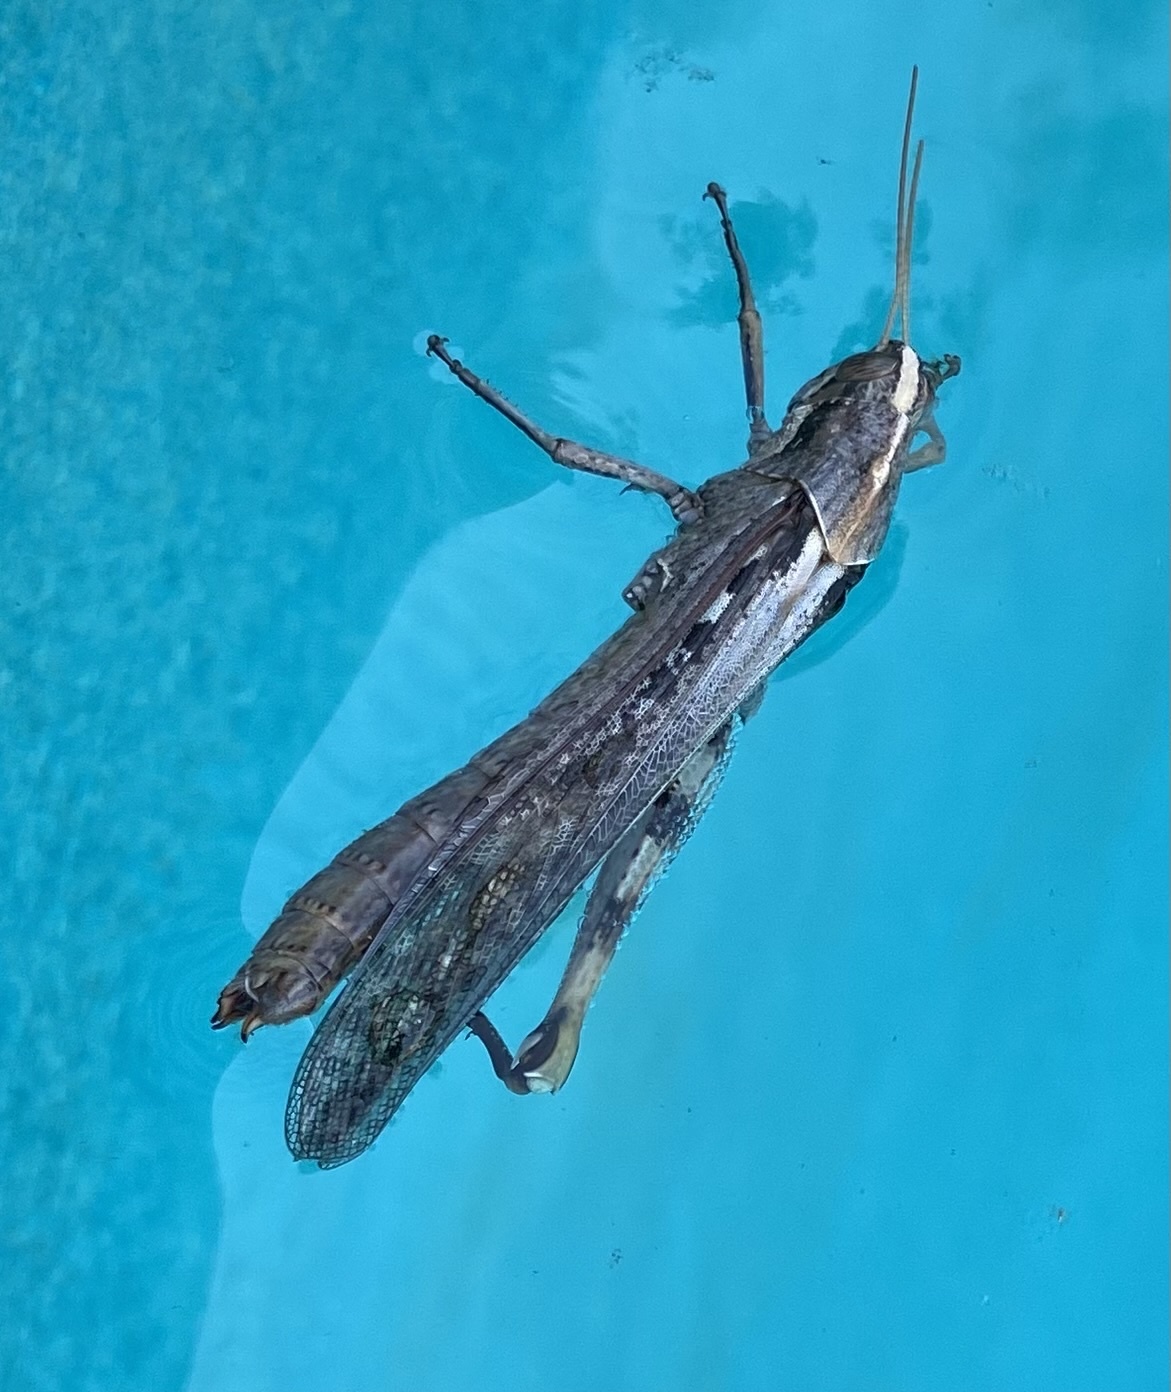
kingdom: Animalia
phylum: Arthropoda
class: Insecta
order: Orthoptera
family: Acrididae
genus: Schistocerca
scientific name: Schistocerca nitens
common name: Vagrant grasshopper
